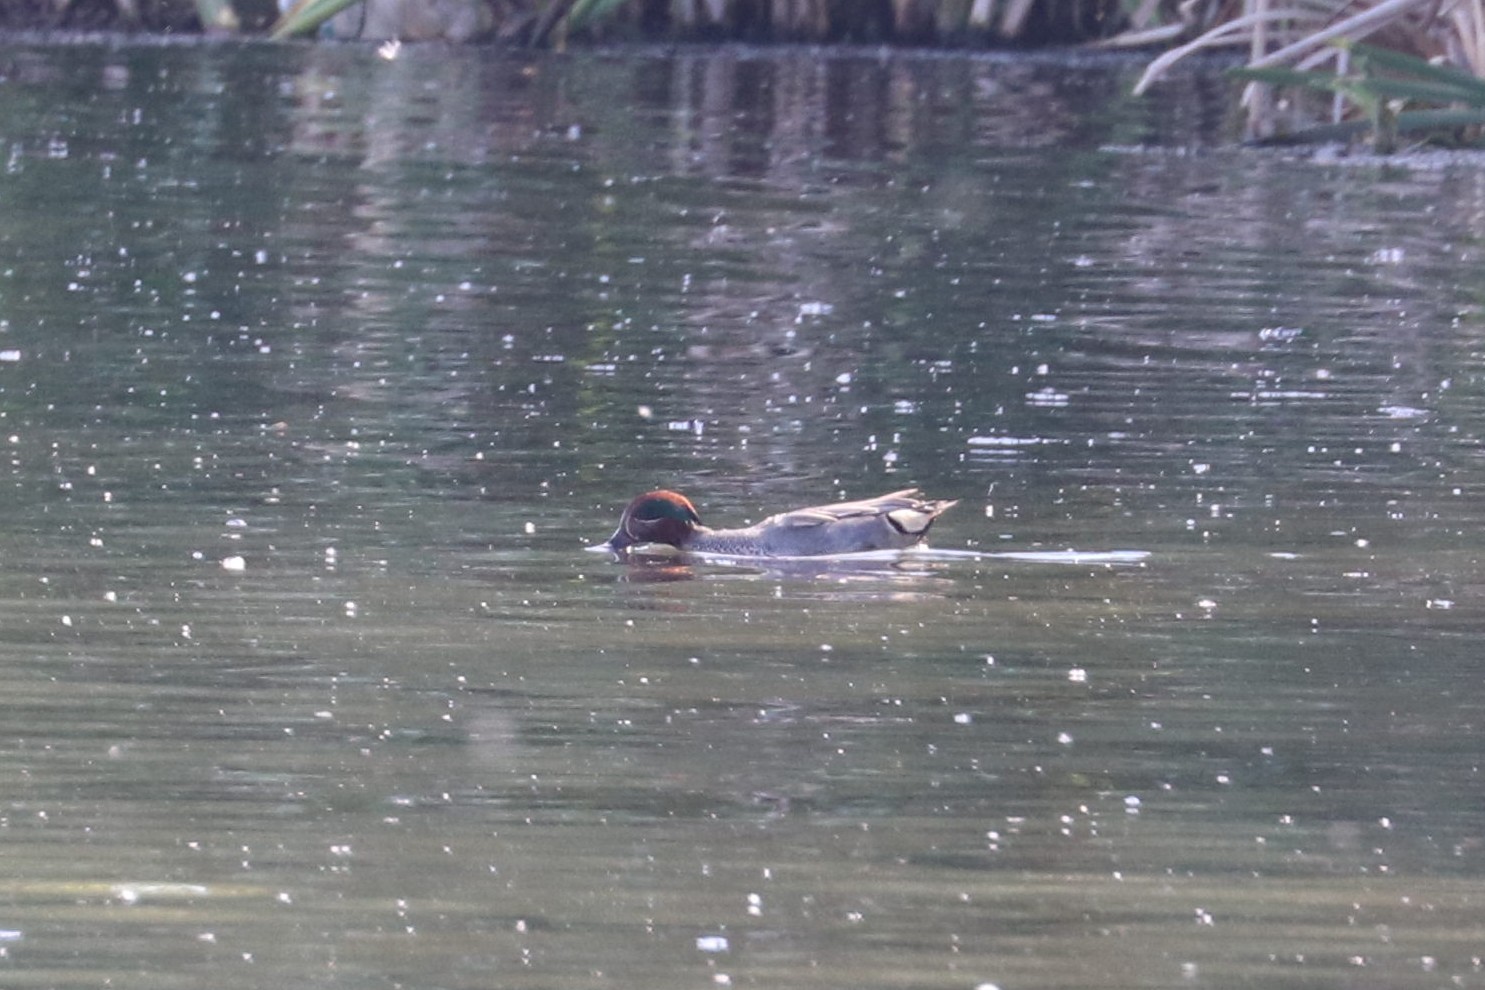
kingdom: Animalia
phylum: Chordata
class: Aves
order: Anseriformes
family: Anatidae
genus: Anas
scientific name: Anas crecca
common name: Eurasian teal
